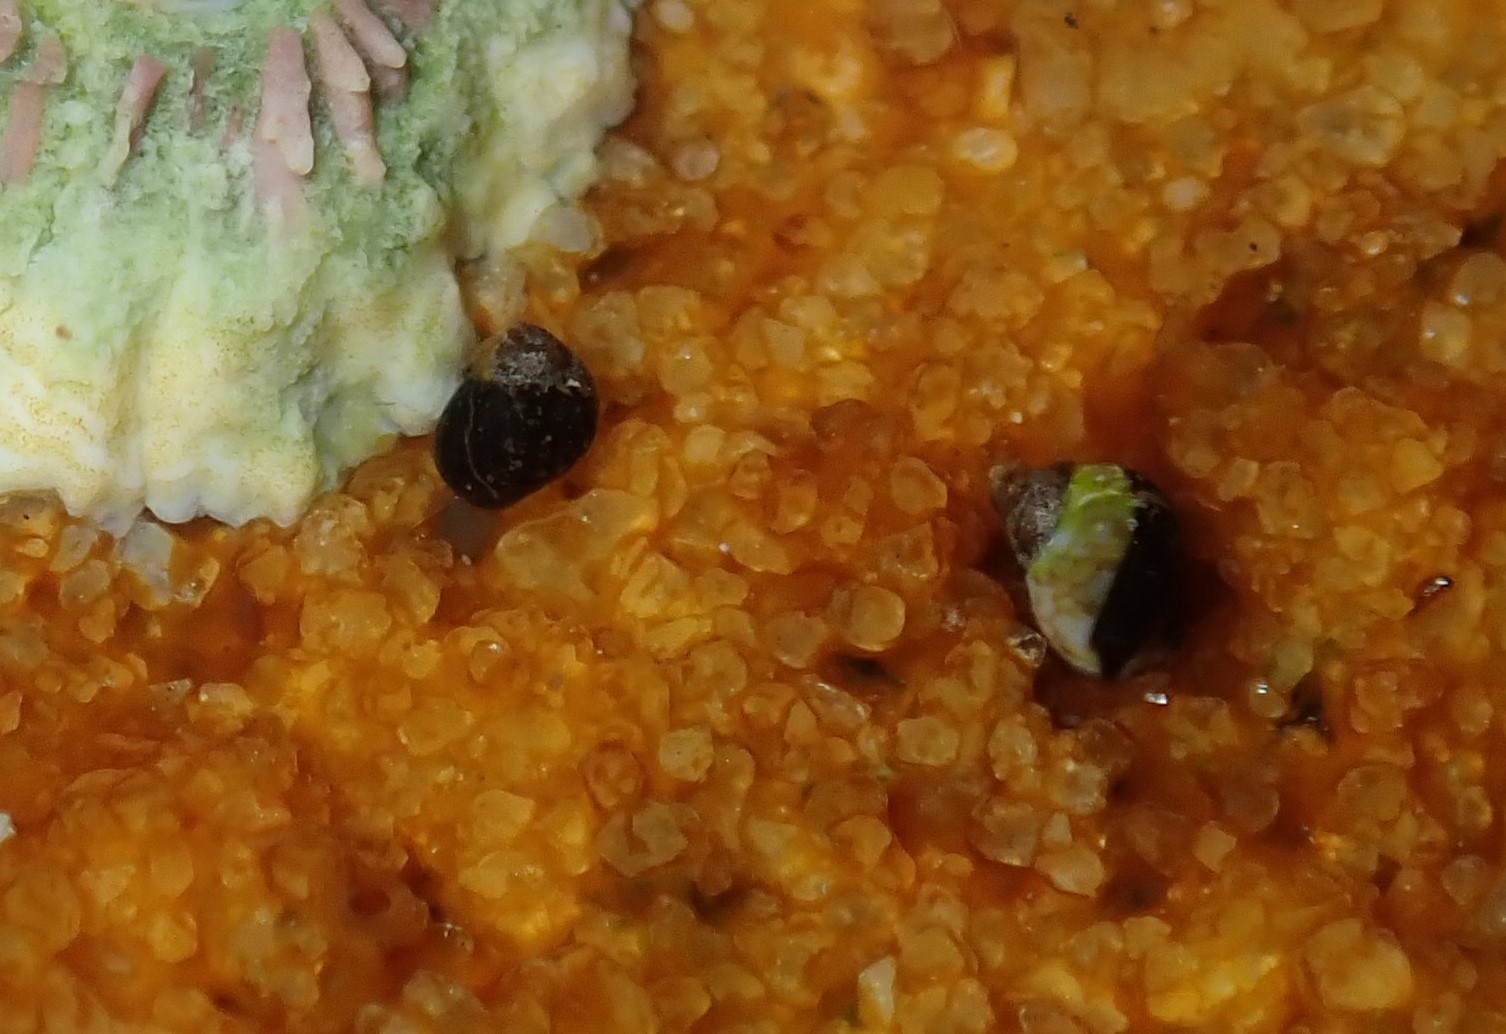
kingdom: Animalia
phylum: Mollusca
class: Gastropoda
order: Littorinimorpha
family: Littorinidae
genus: Afrolittorina
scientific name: Afrolittorina acutispira
